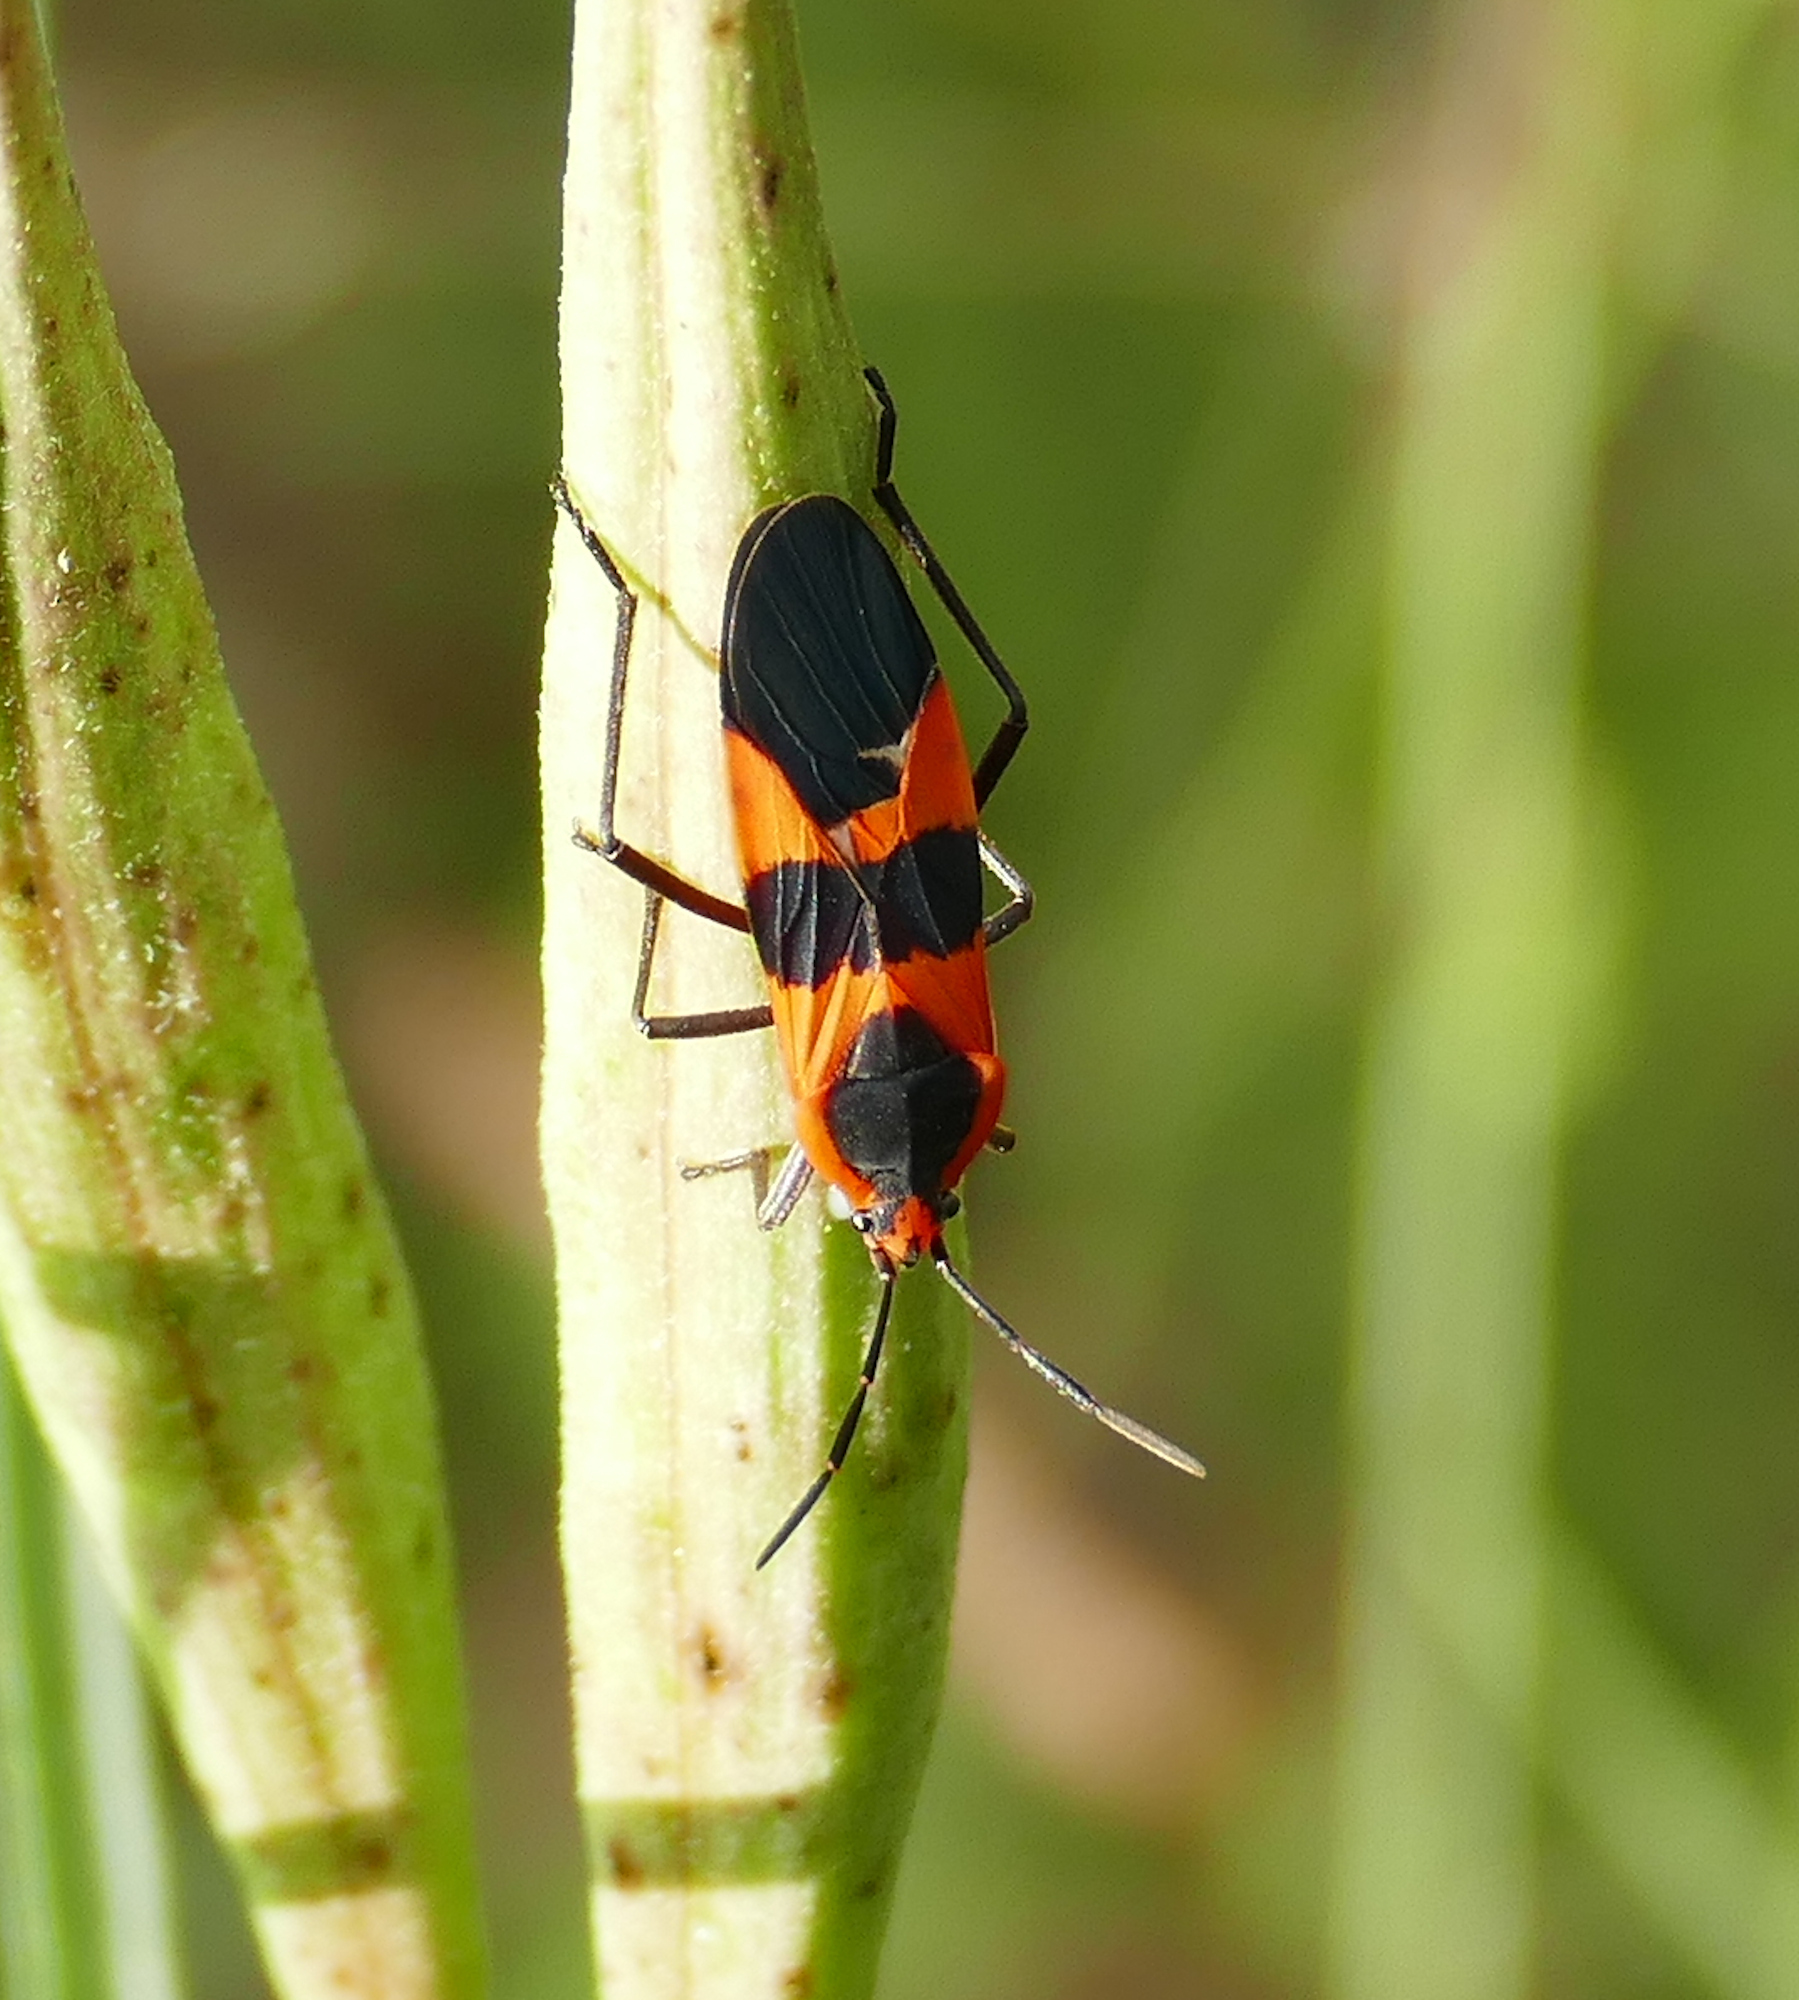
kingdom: Animalia
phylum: Arthropoda
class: Insecta
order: Hemiptera
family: Lygaeidae
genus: Oncopeltus
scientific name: Oncopeltus fasciatus
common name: Large milkweed bug
